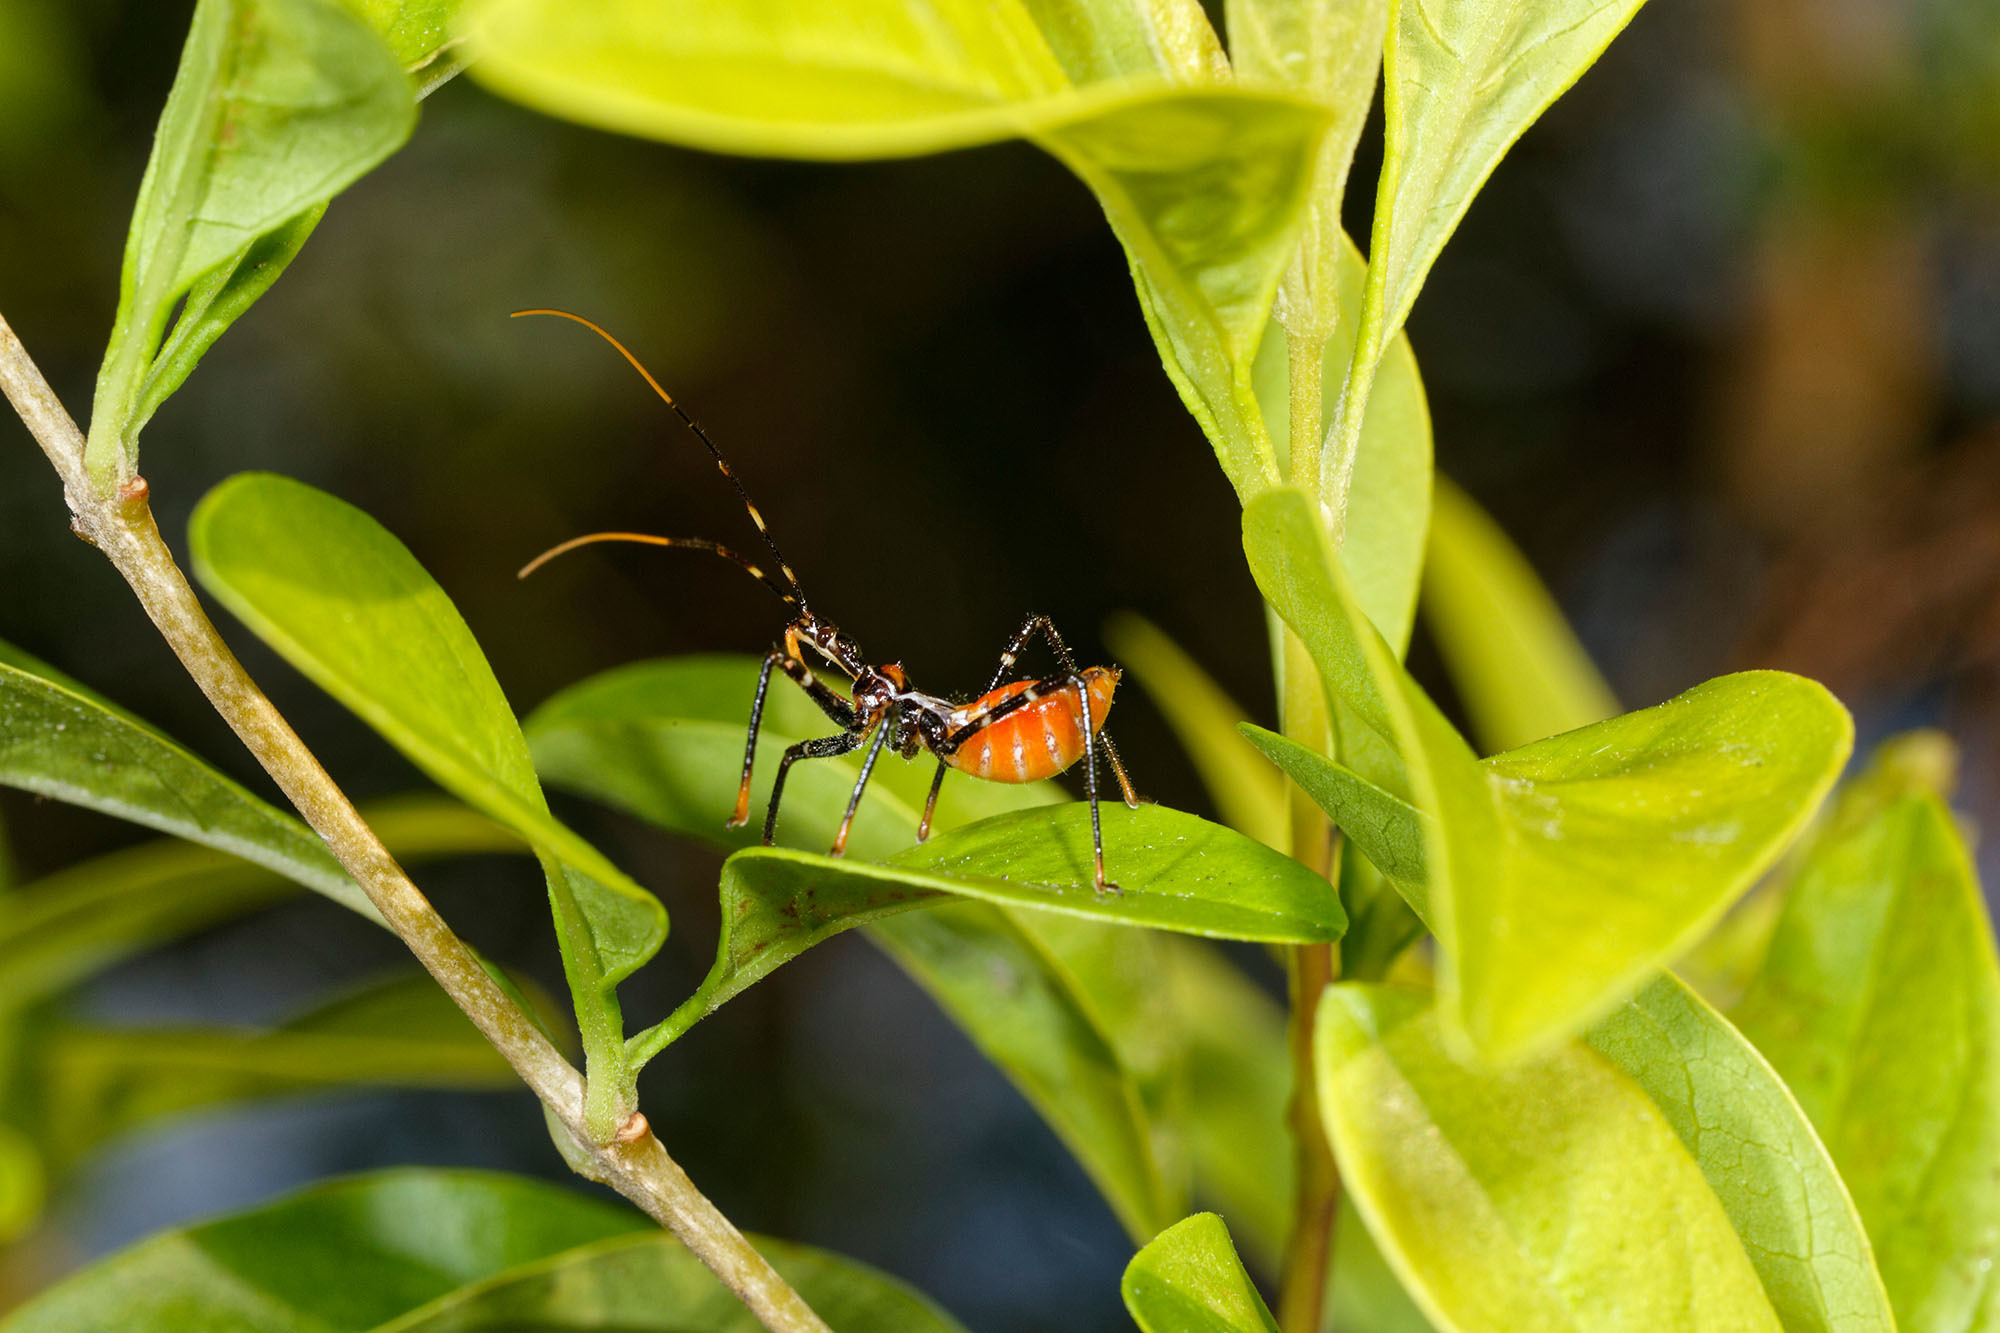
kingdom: Animalia
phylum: Arthropoda
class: Insecta
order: Hemiptera
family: Reduviidae
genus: Pristhesancus
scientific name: Pristhesancus plagipennis
